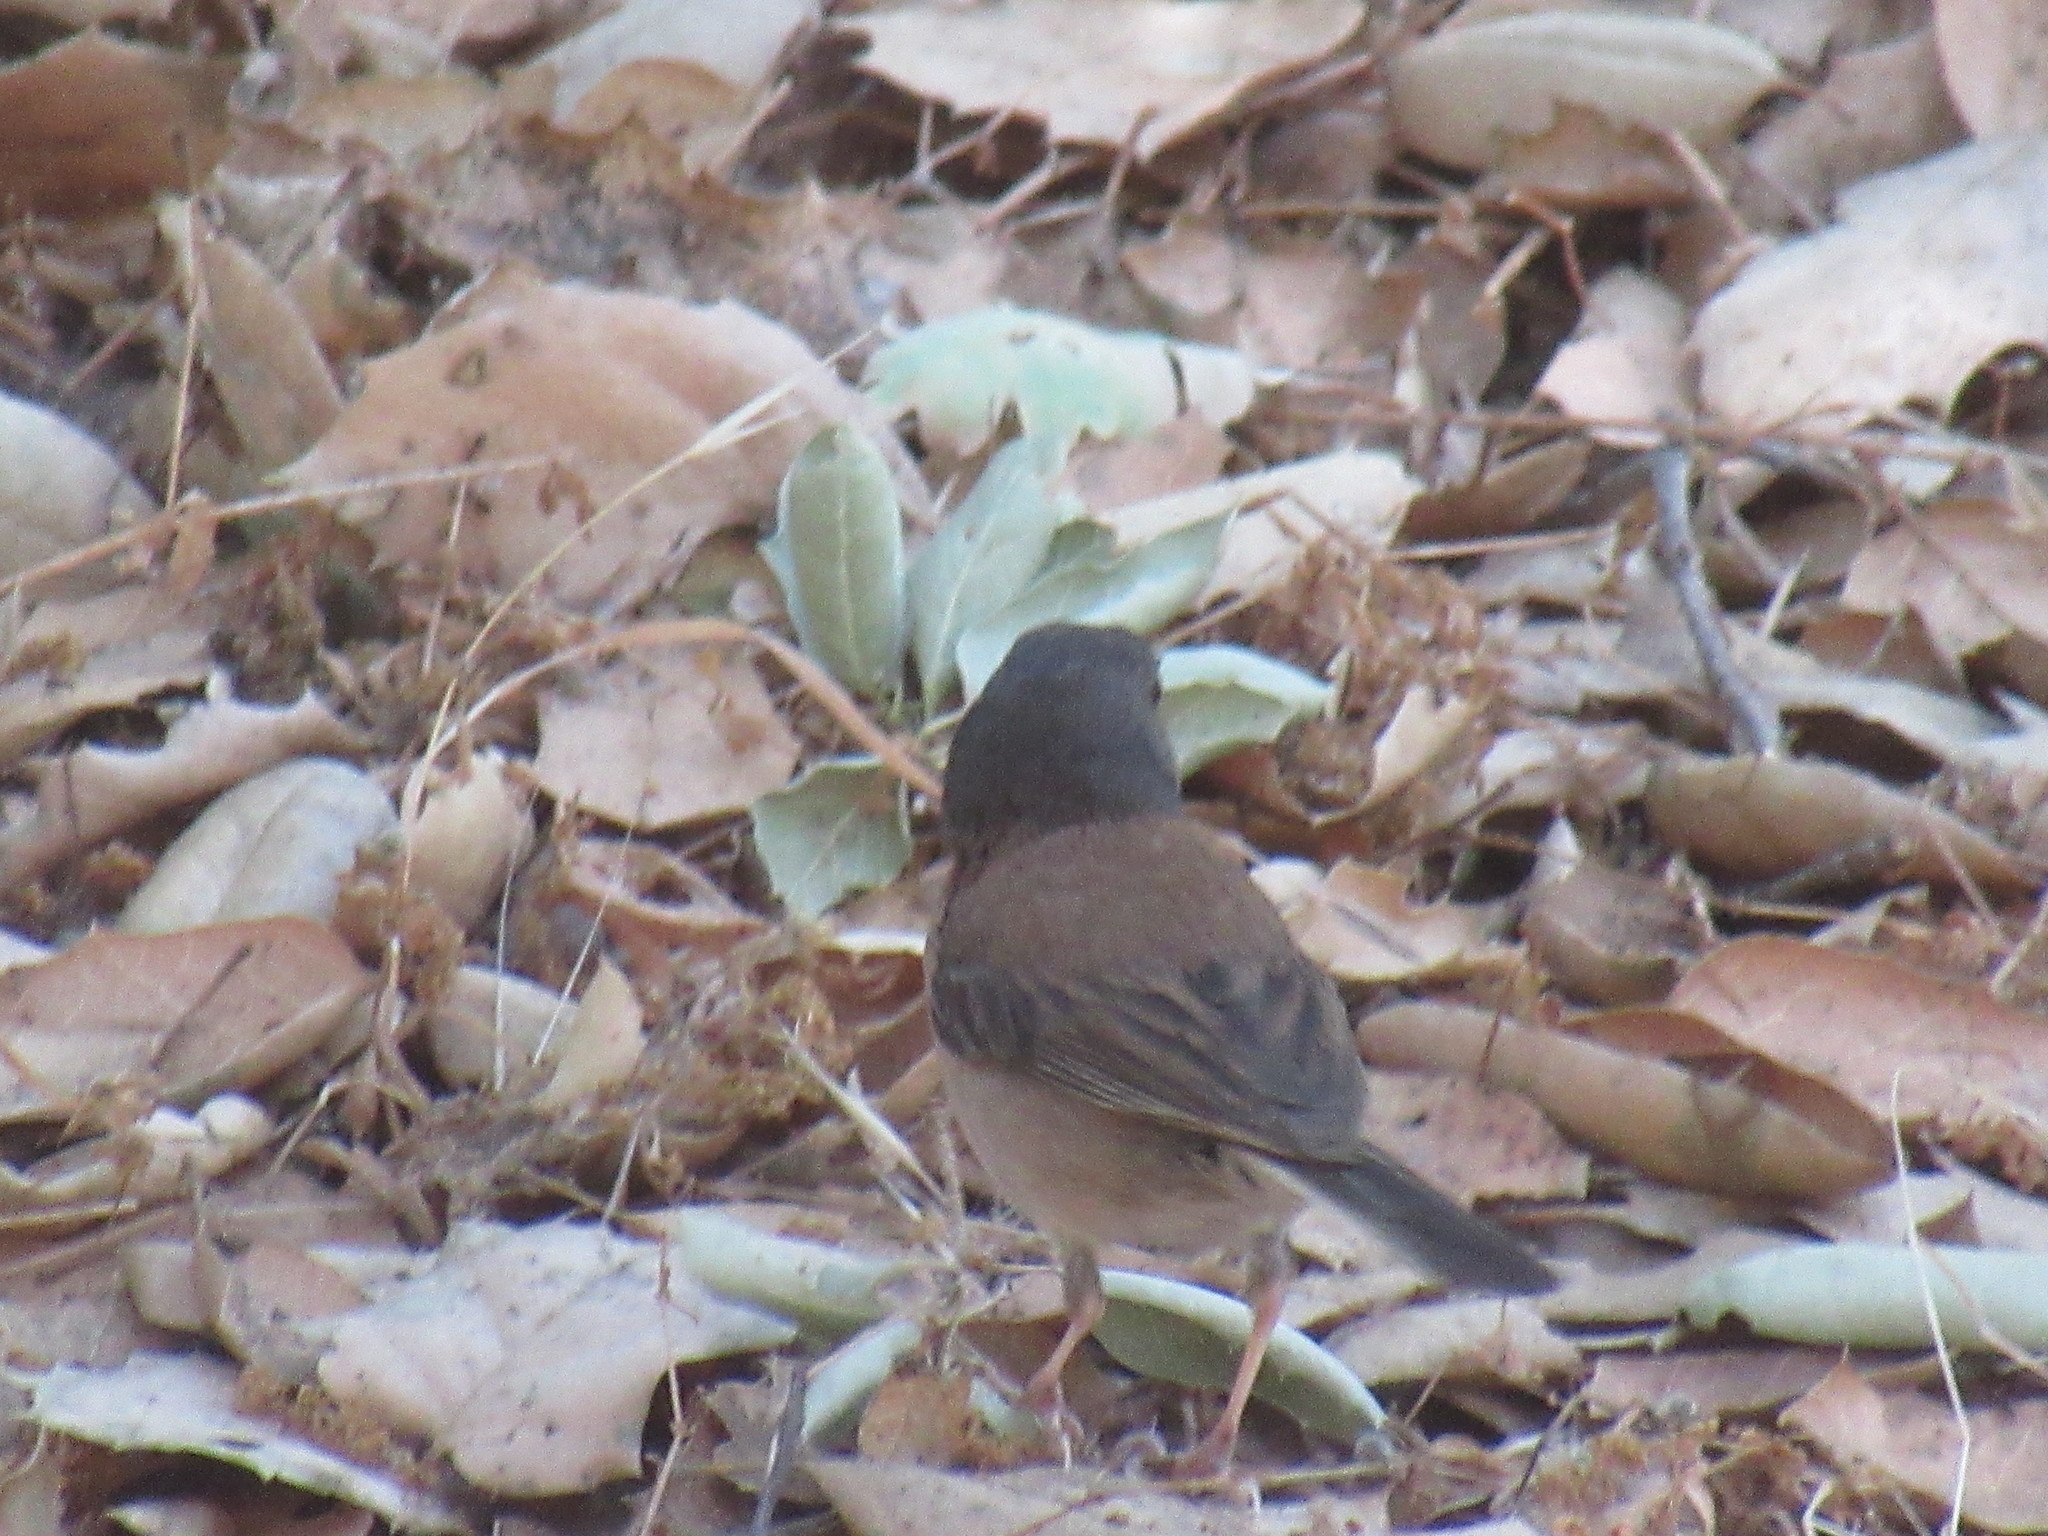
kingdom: Animalia
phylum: Chordata
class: Aves
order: Passeriformes
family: Passerellidae
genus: Junco
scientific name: Junco hyemalis
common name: Dark-eyed junco
